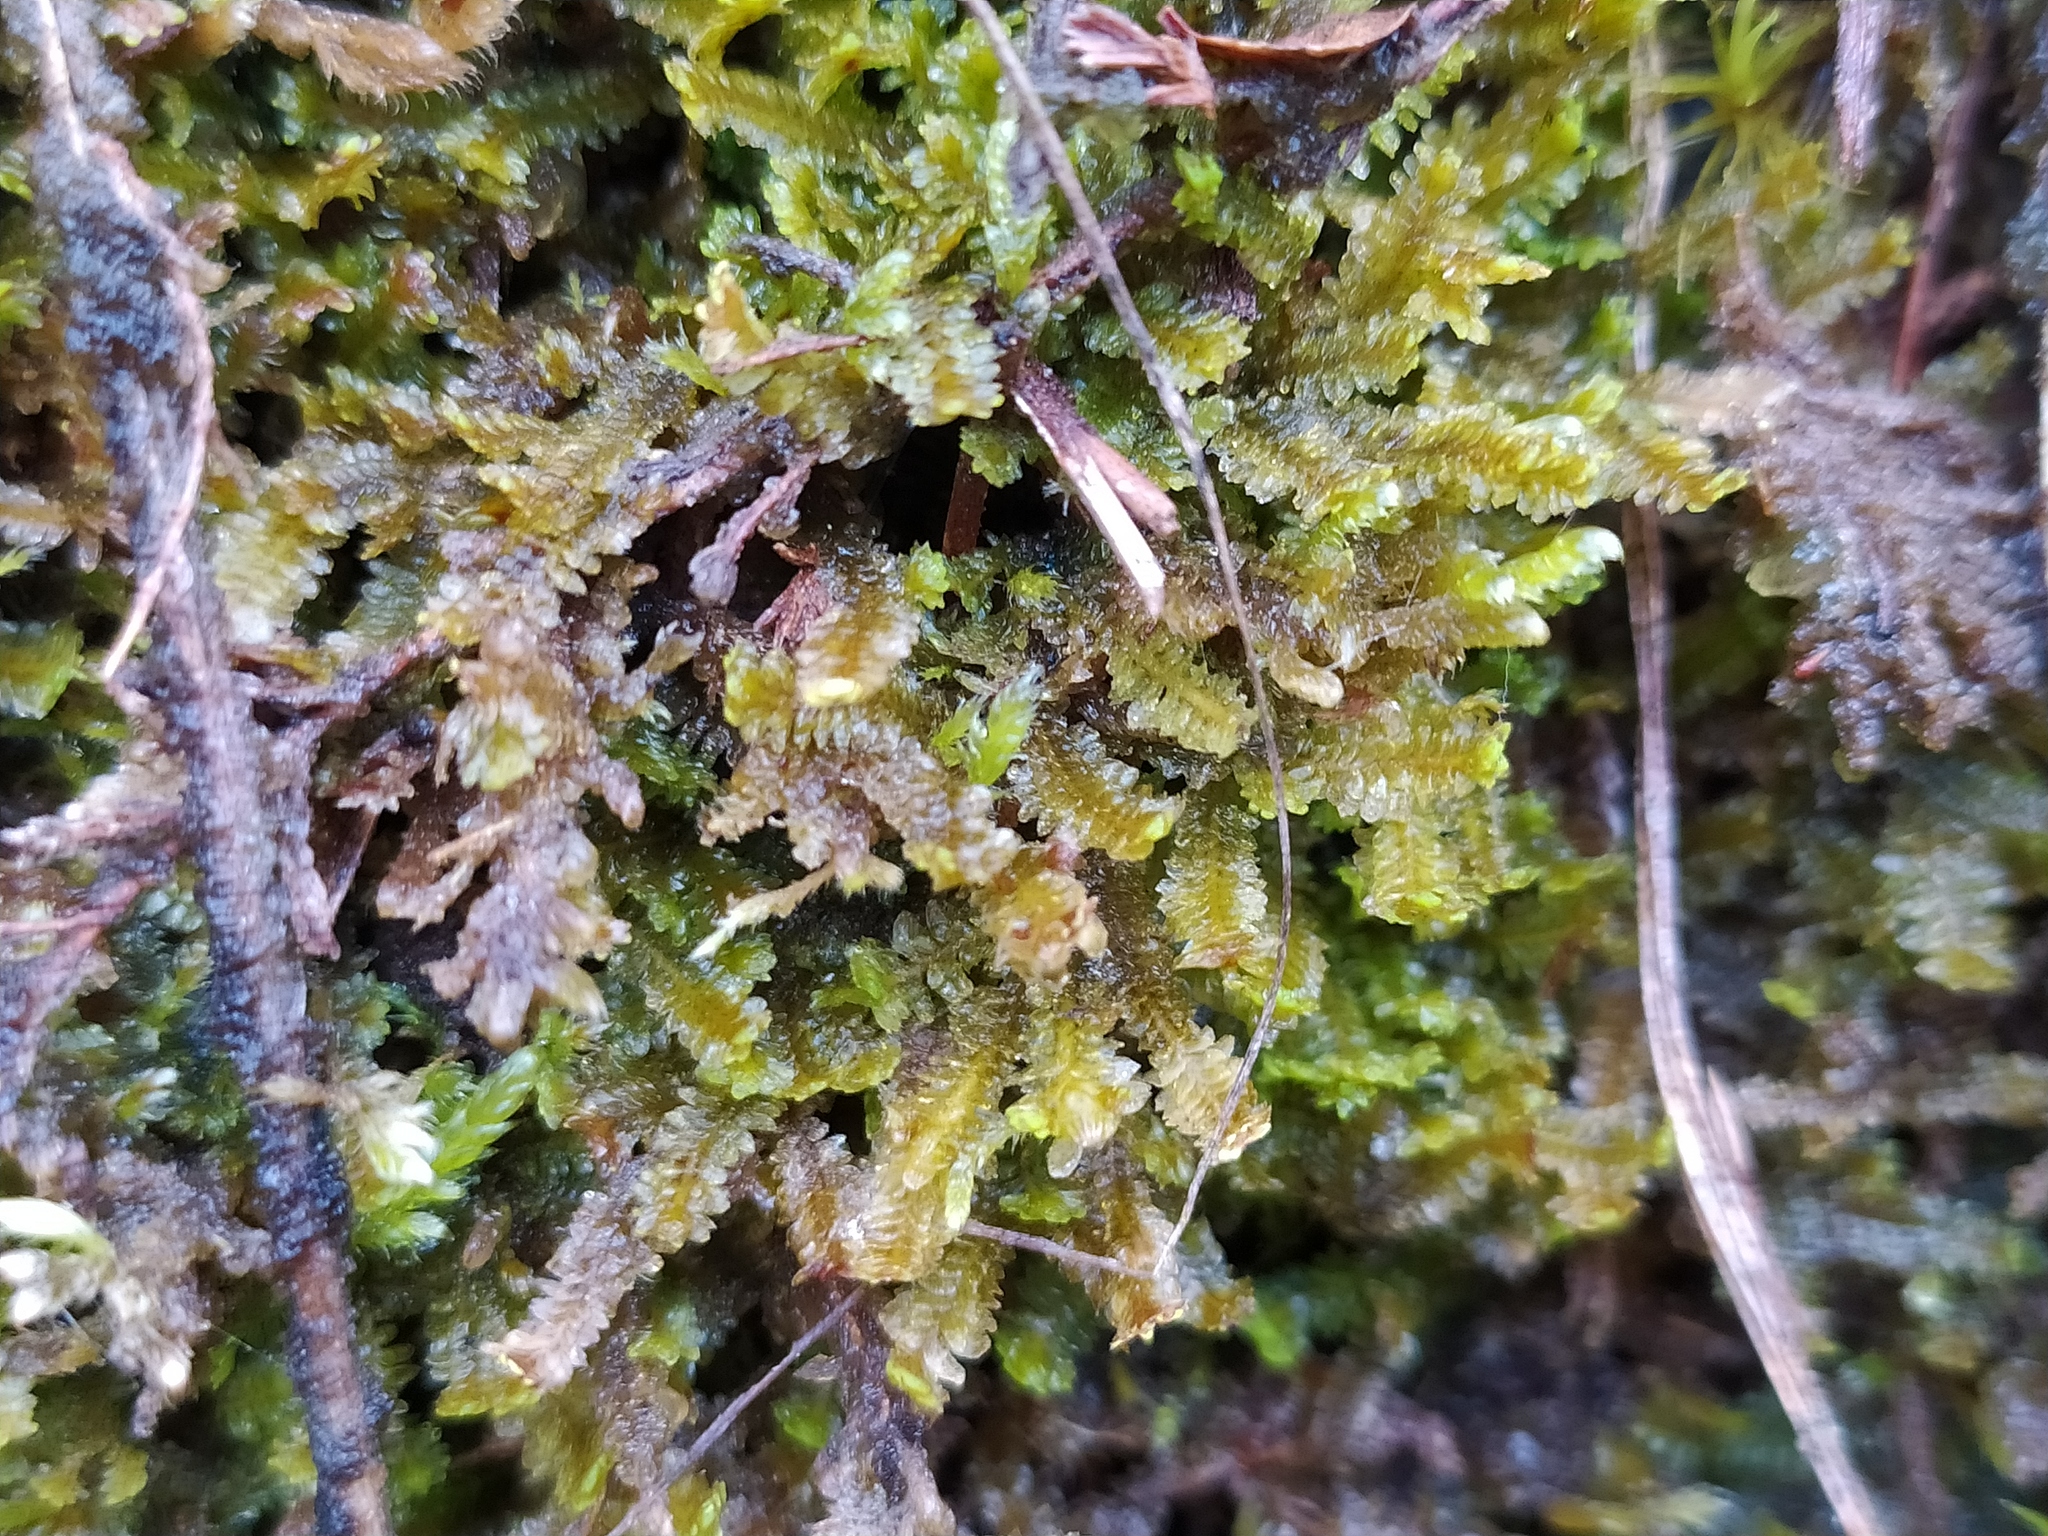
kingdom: Plantae
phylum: Marchantiophyta
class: Jungermanniopsida
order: Jungermanniales
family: Scapaniaceae
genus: Diplophyllum
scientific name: Diplophyllum albicans
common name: White earwort
